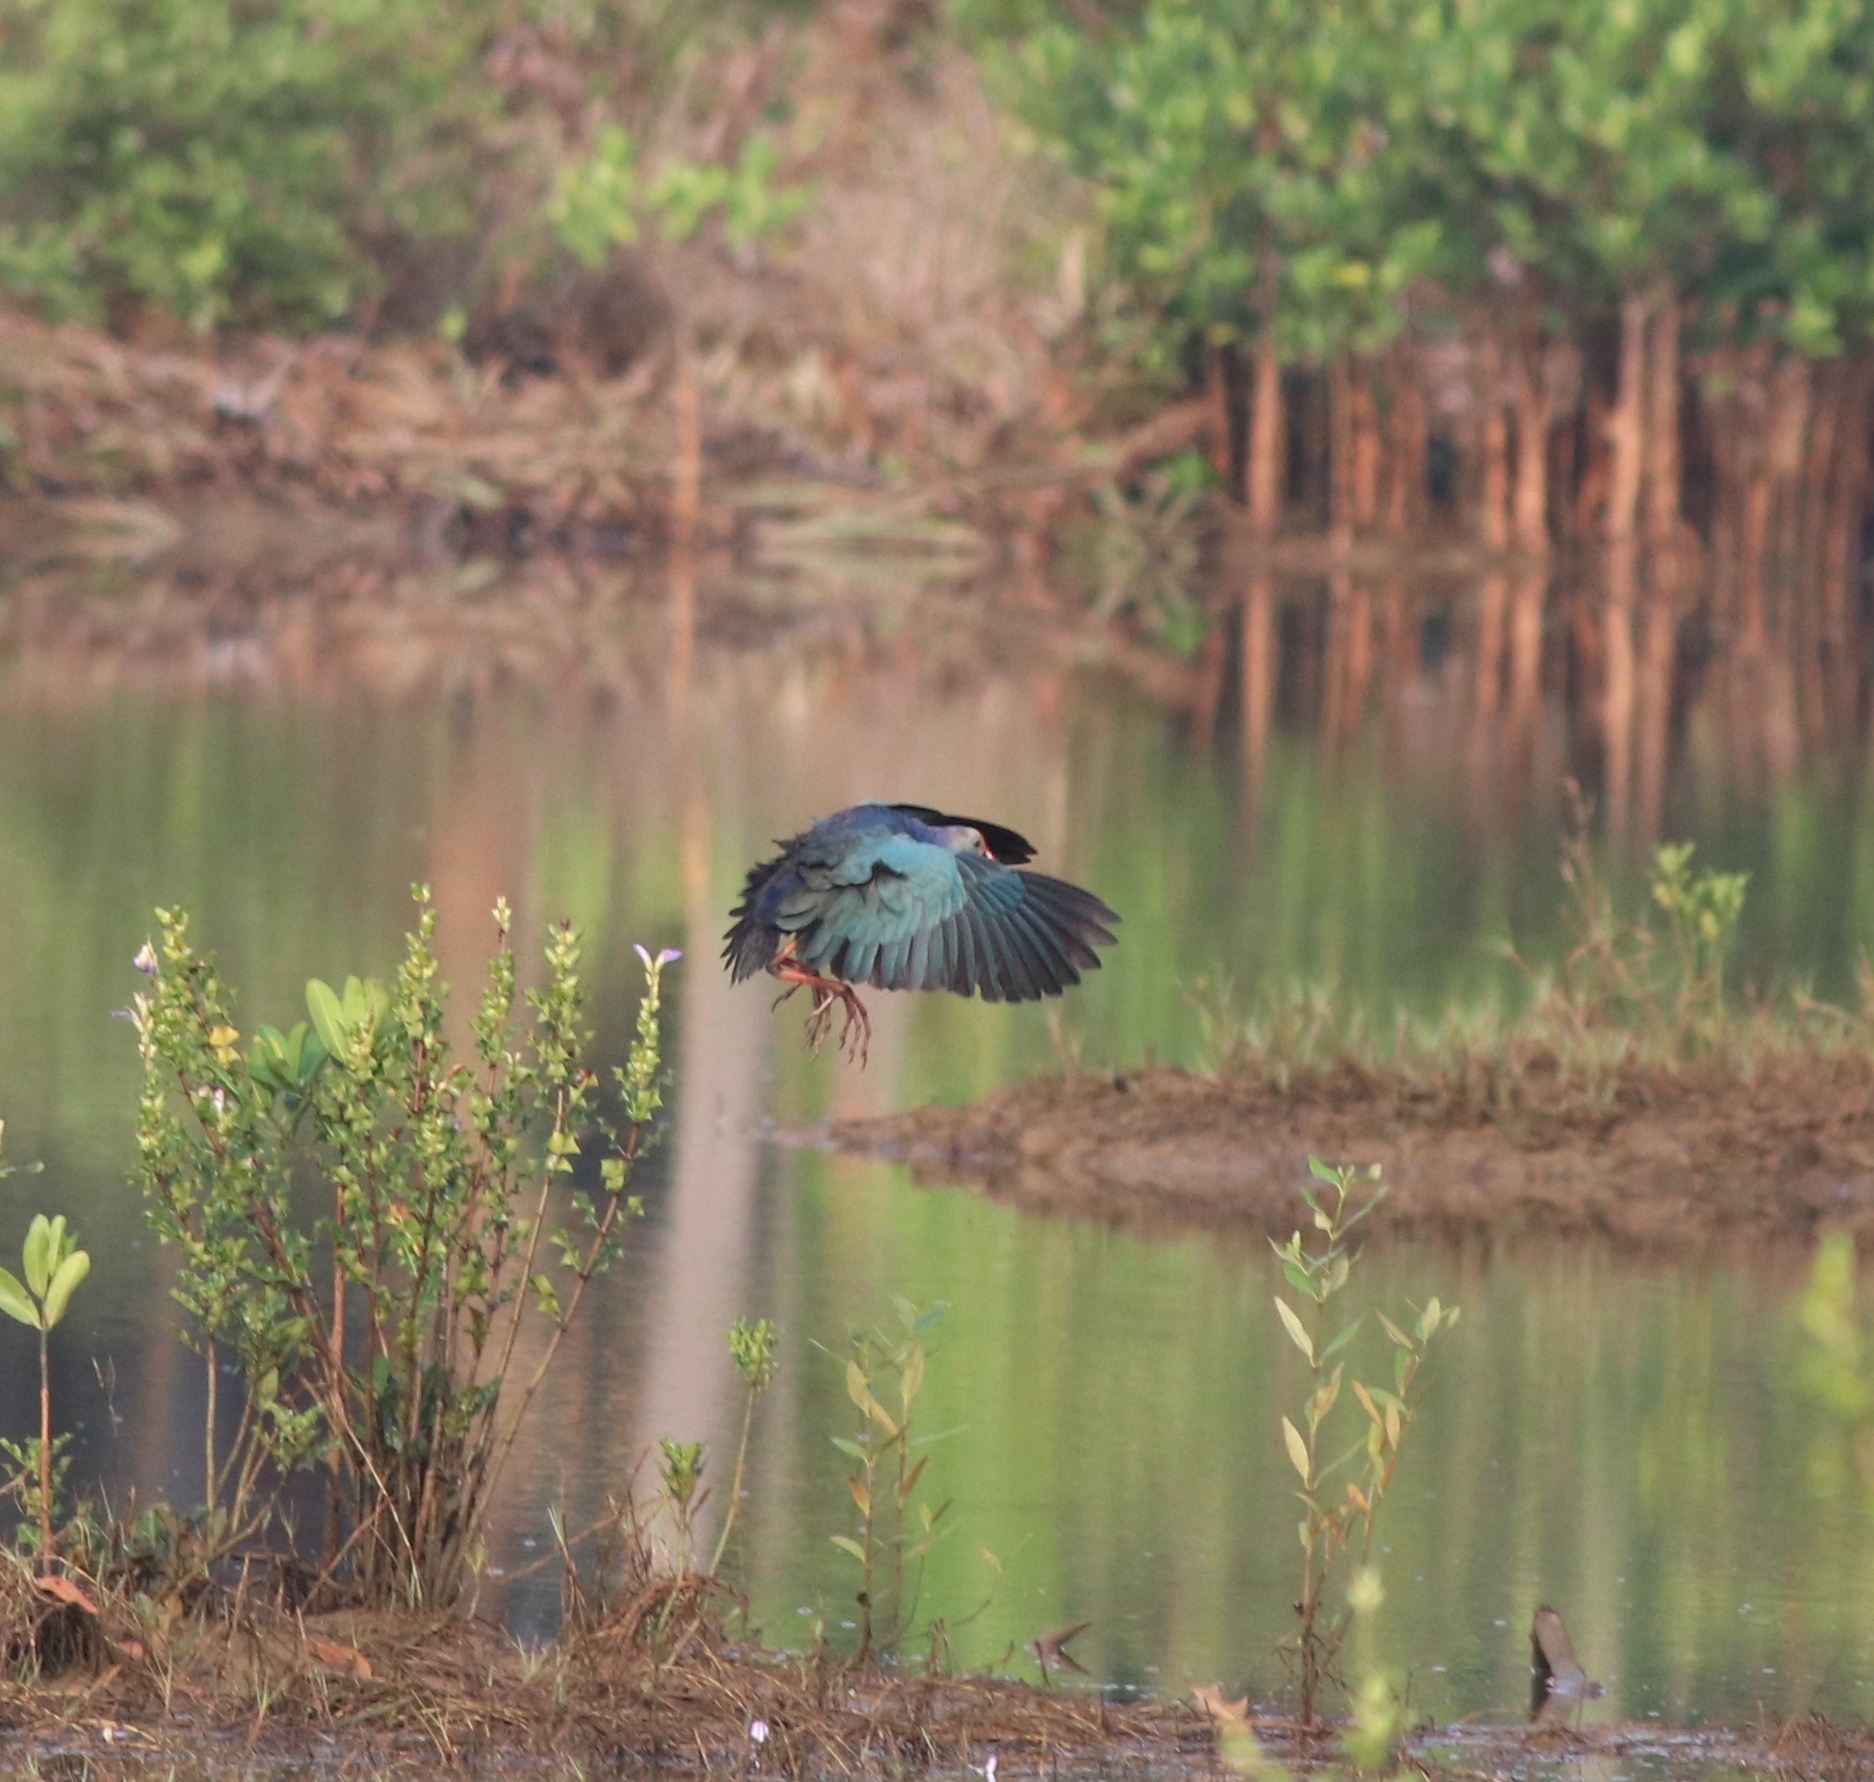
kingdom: Animalia
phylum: Chordata
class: Aves
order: Gruiformes
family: Rallidae
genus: Porphyrio
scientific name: Porphyrio porphyrio
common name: Purple swamphen
